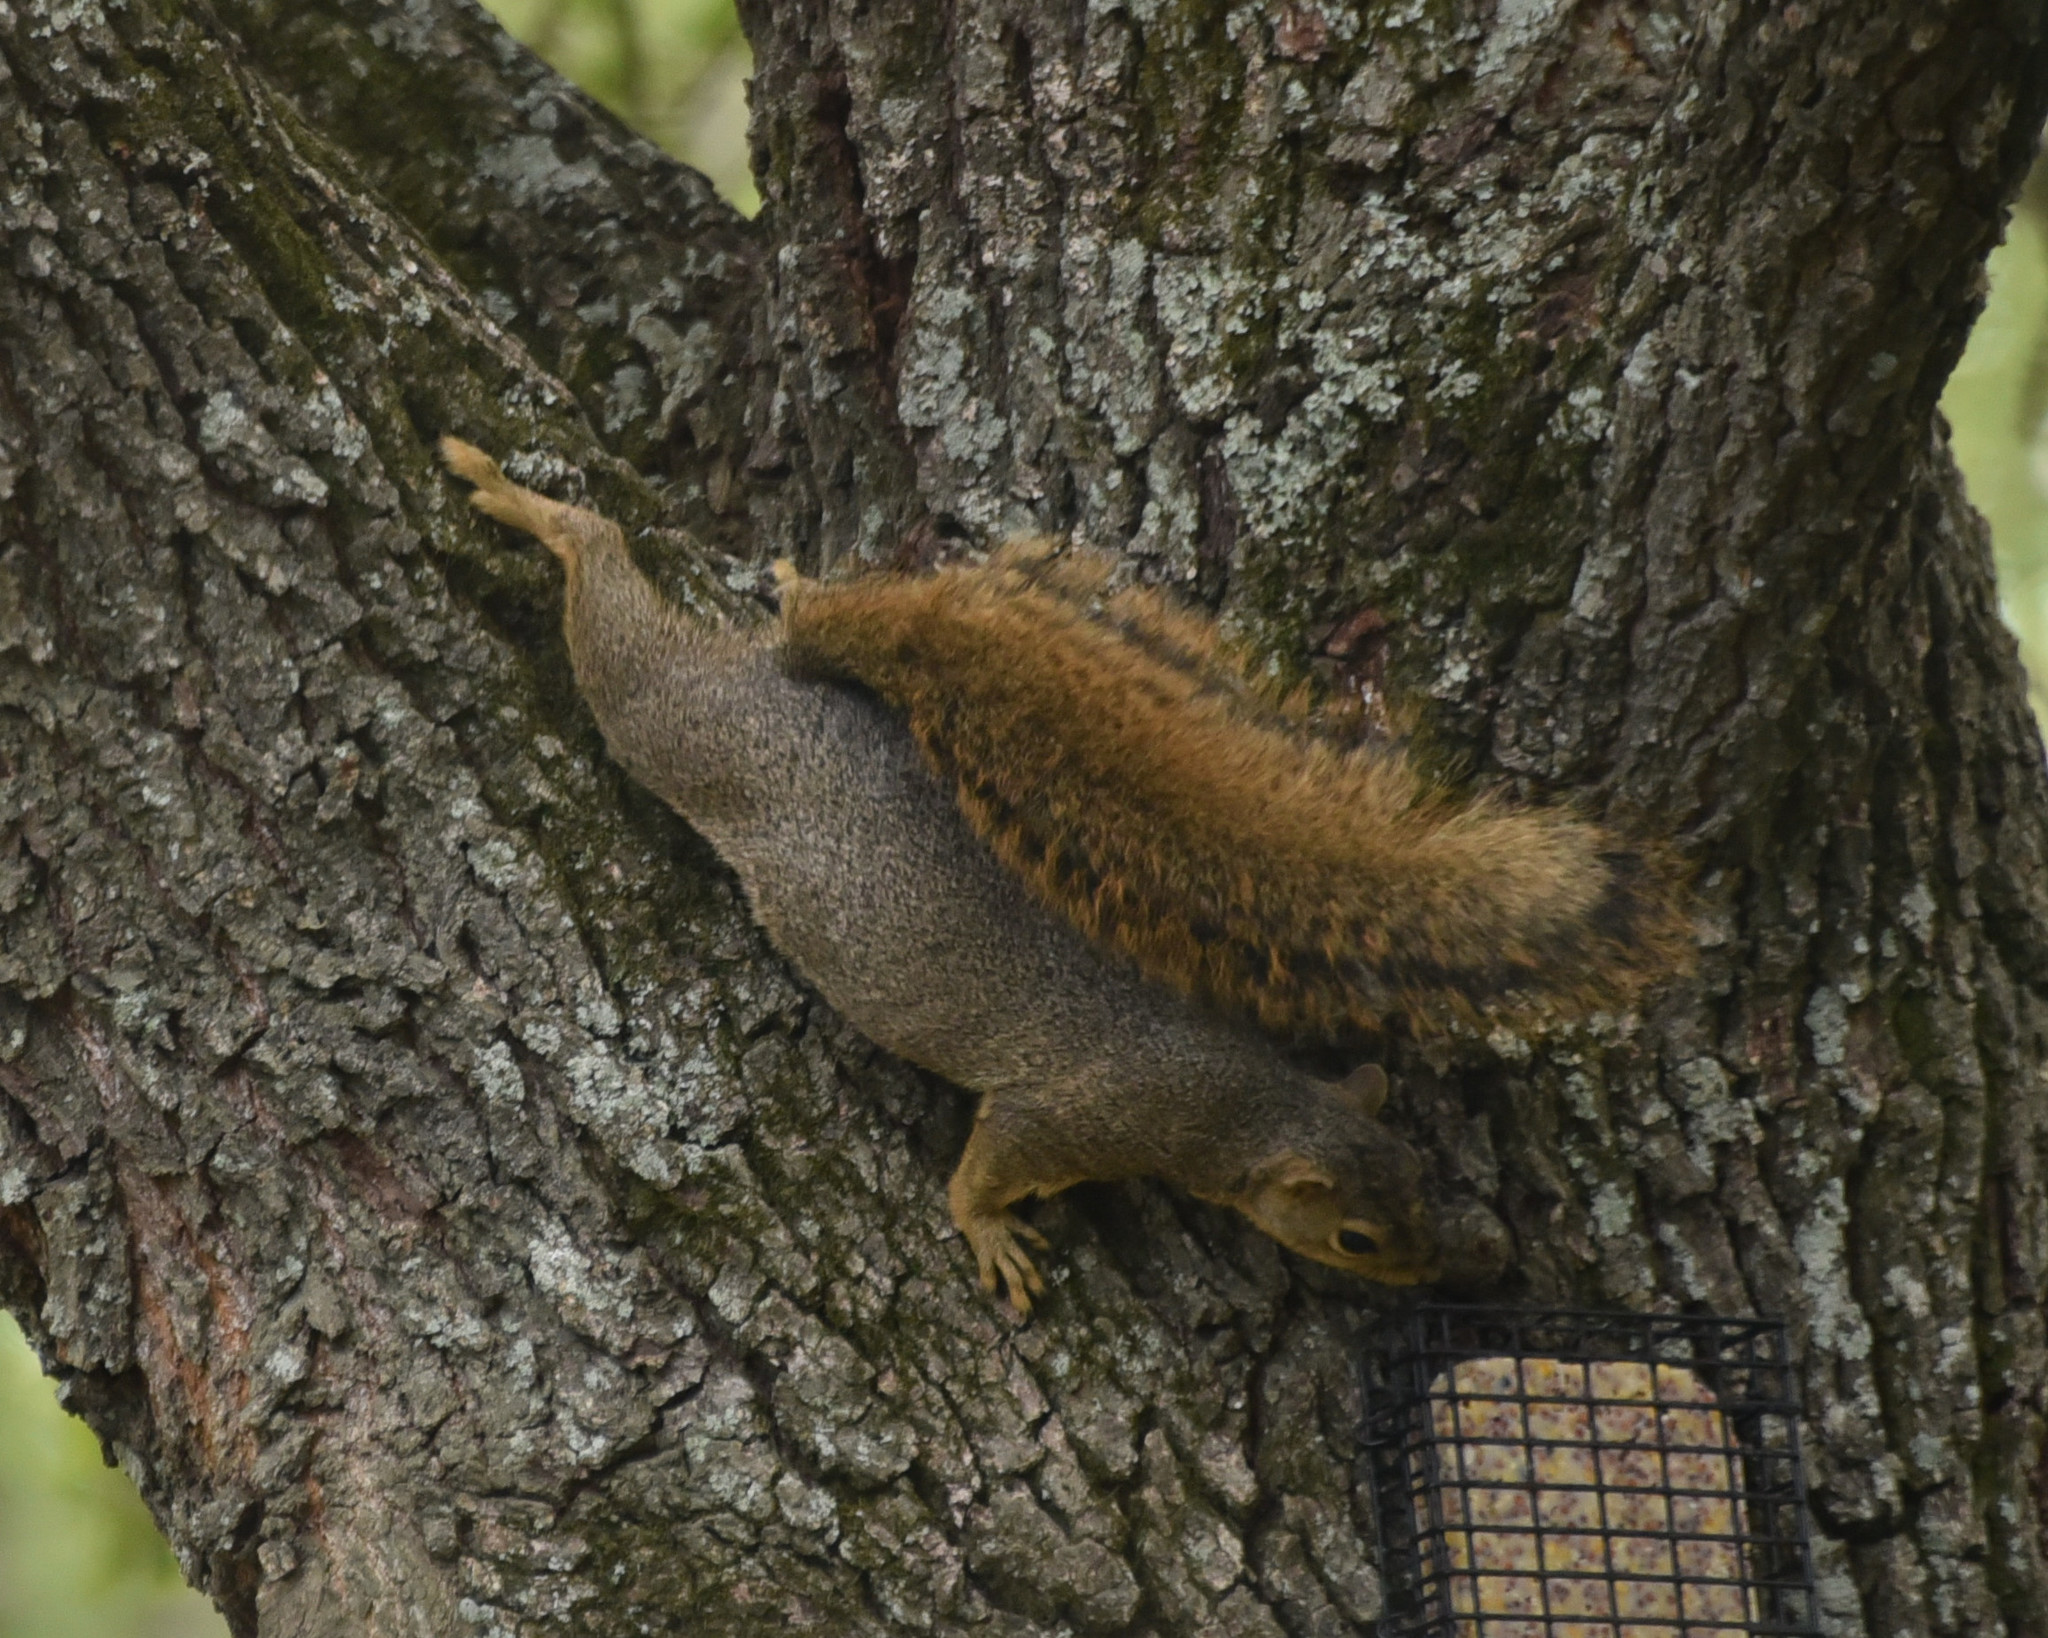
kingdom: Animalia
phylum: Chordata
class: Mammalia
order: Rodentia
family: Sciuridae
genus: Sciurus
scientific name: Sciurus niger
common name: Fox squirrel
